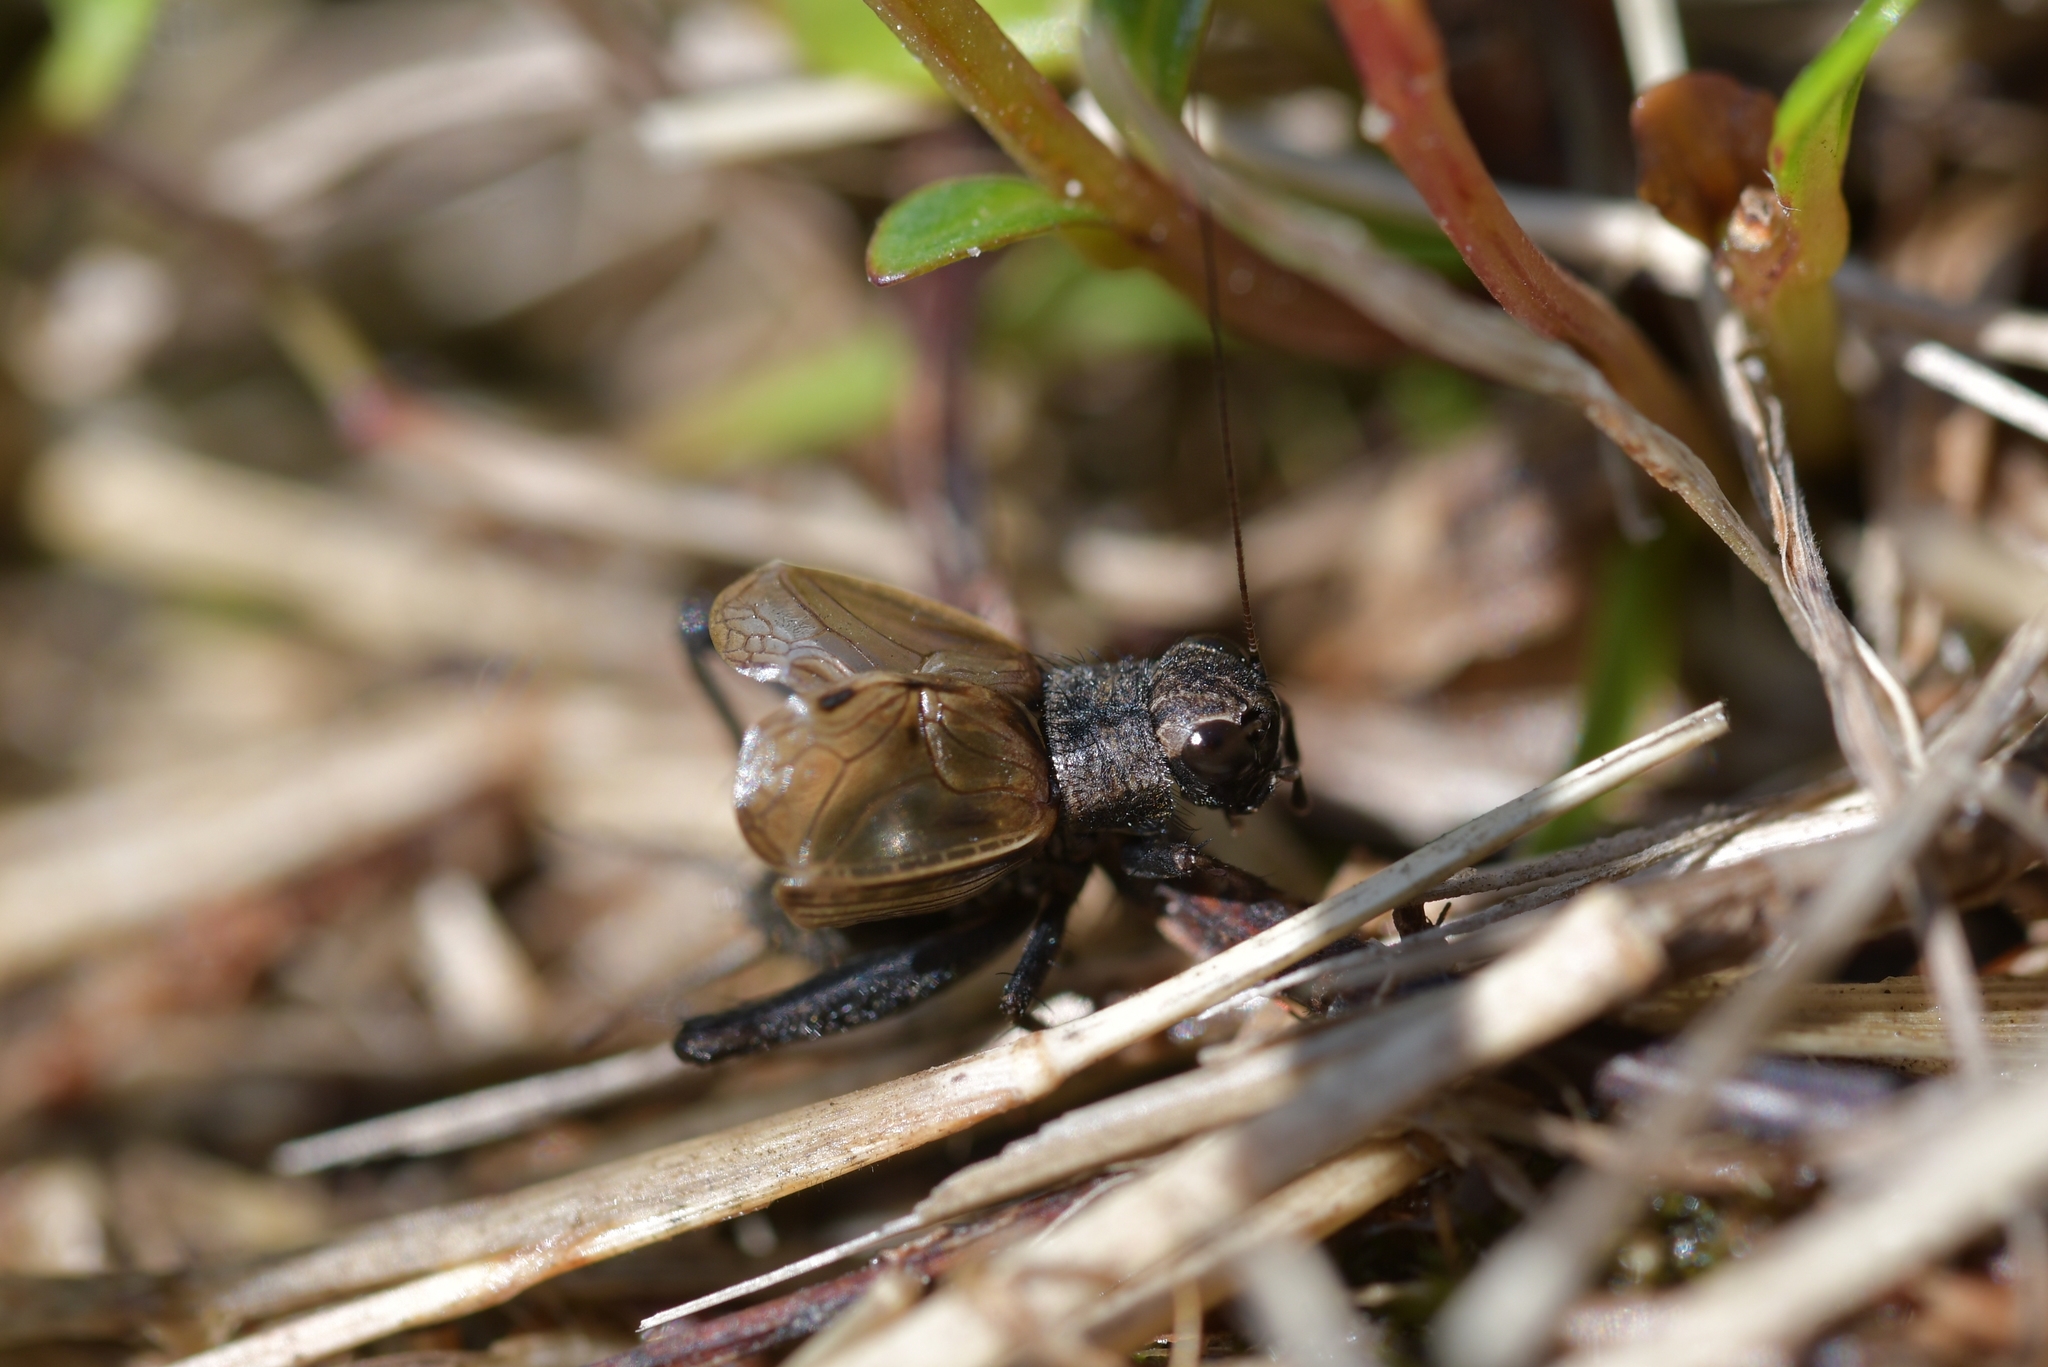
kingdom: Animalia
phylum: Arthropoda
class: Insecta
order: Orthoptera
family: Trigonidiidae
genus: Bobilla
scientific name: Bobilla nigrovus
